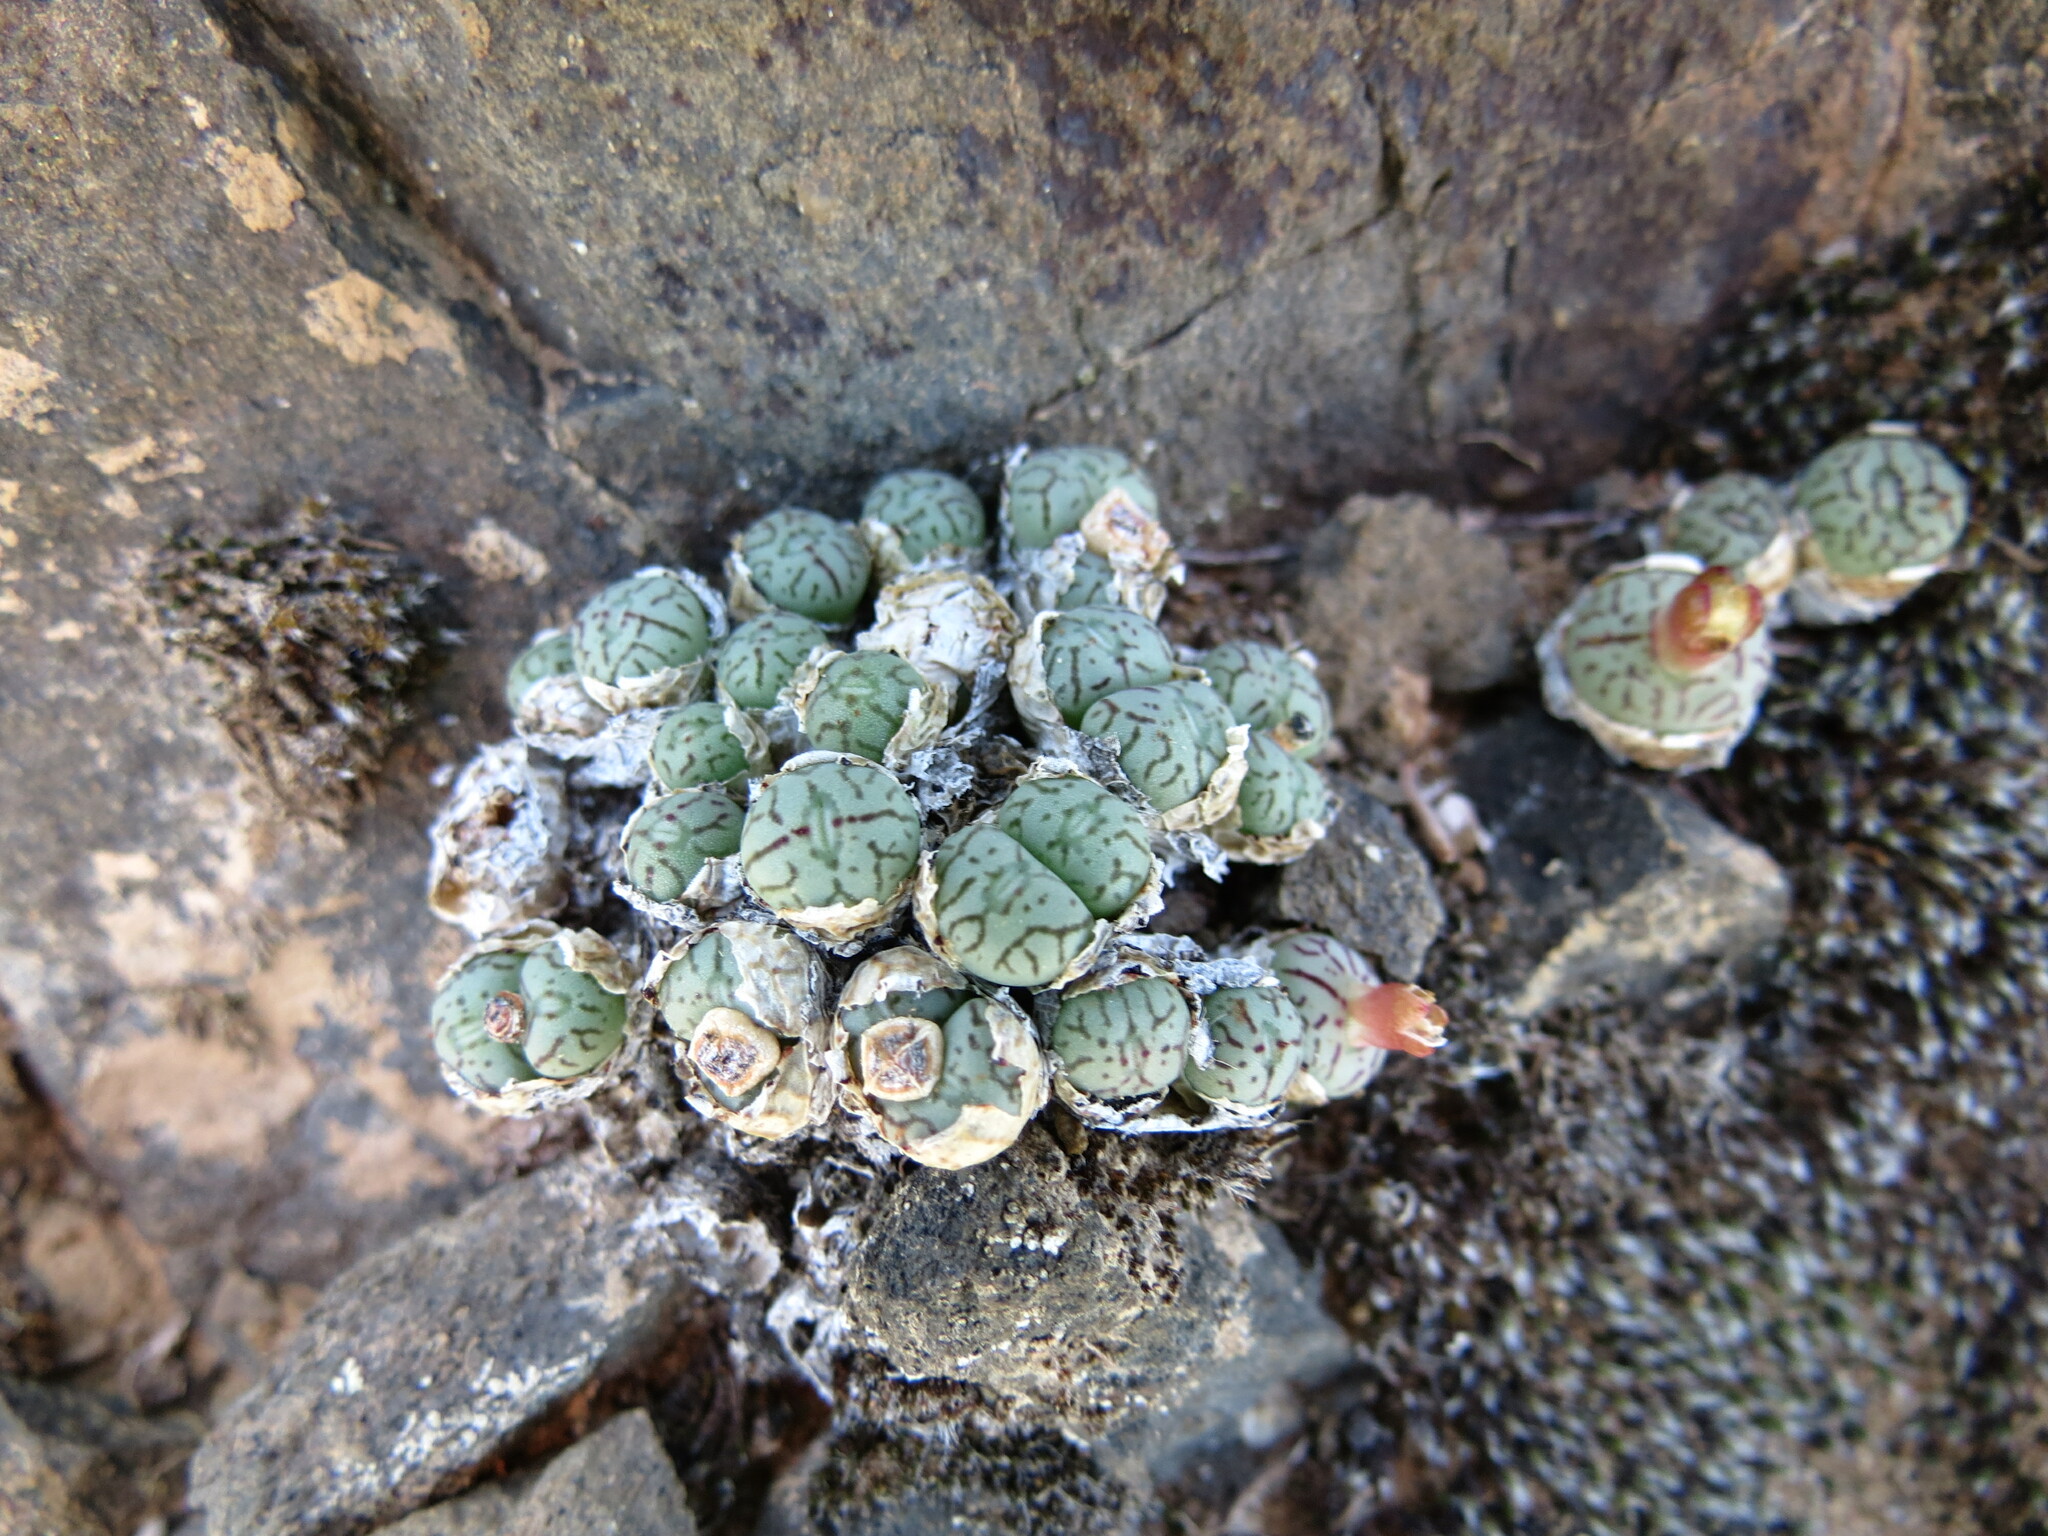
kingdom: Plantae
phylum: Tracheophyta
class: Magnoliopsida
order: Caryophyllales
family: Aizoaceae
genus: Conophytum
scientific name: Conophytum minimum
